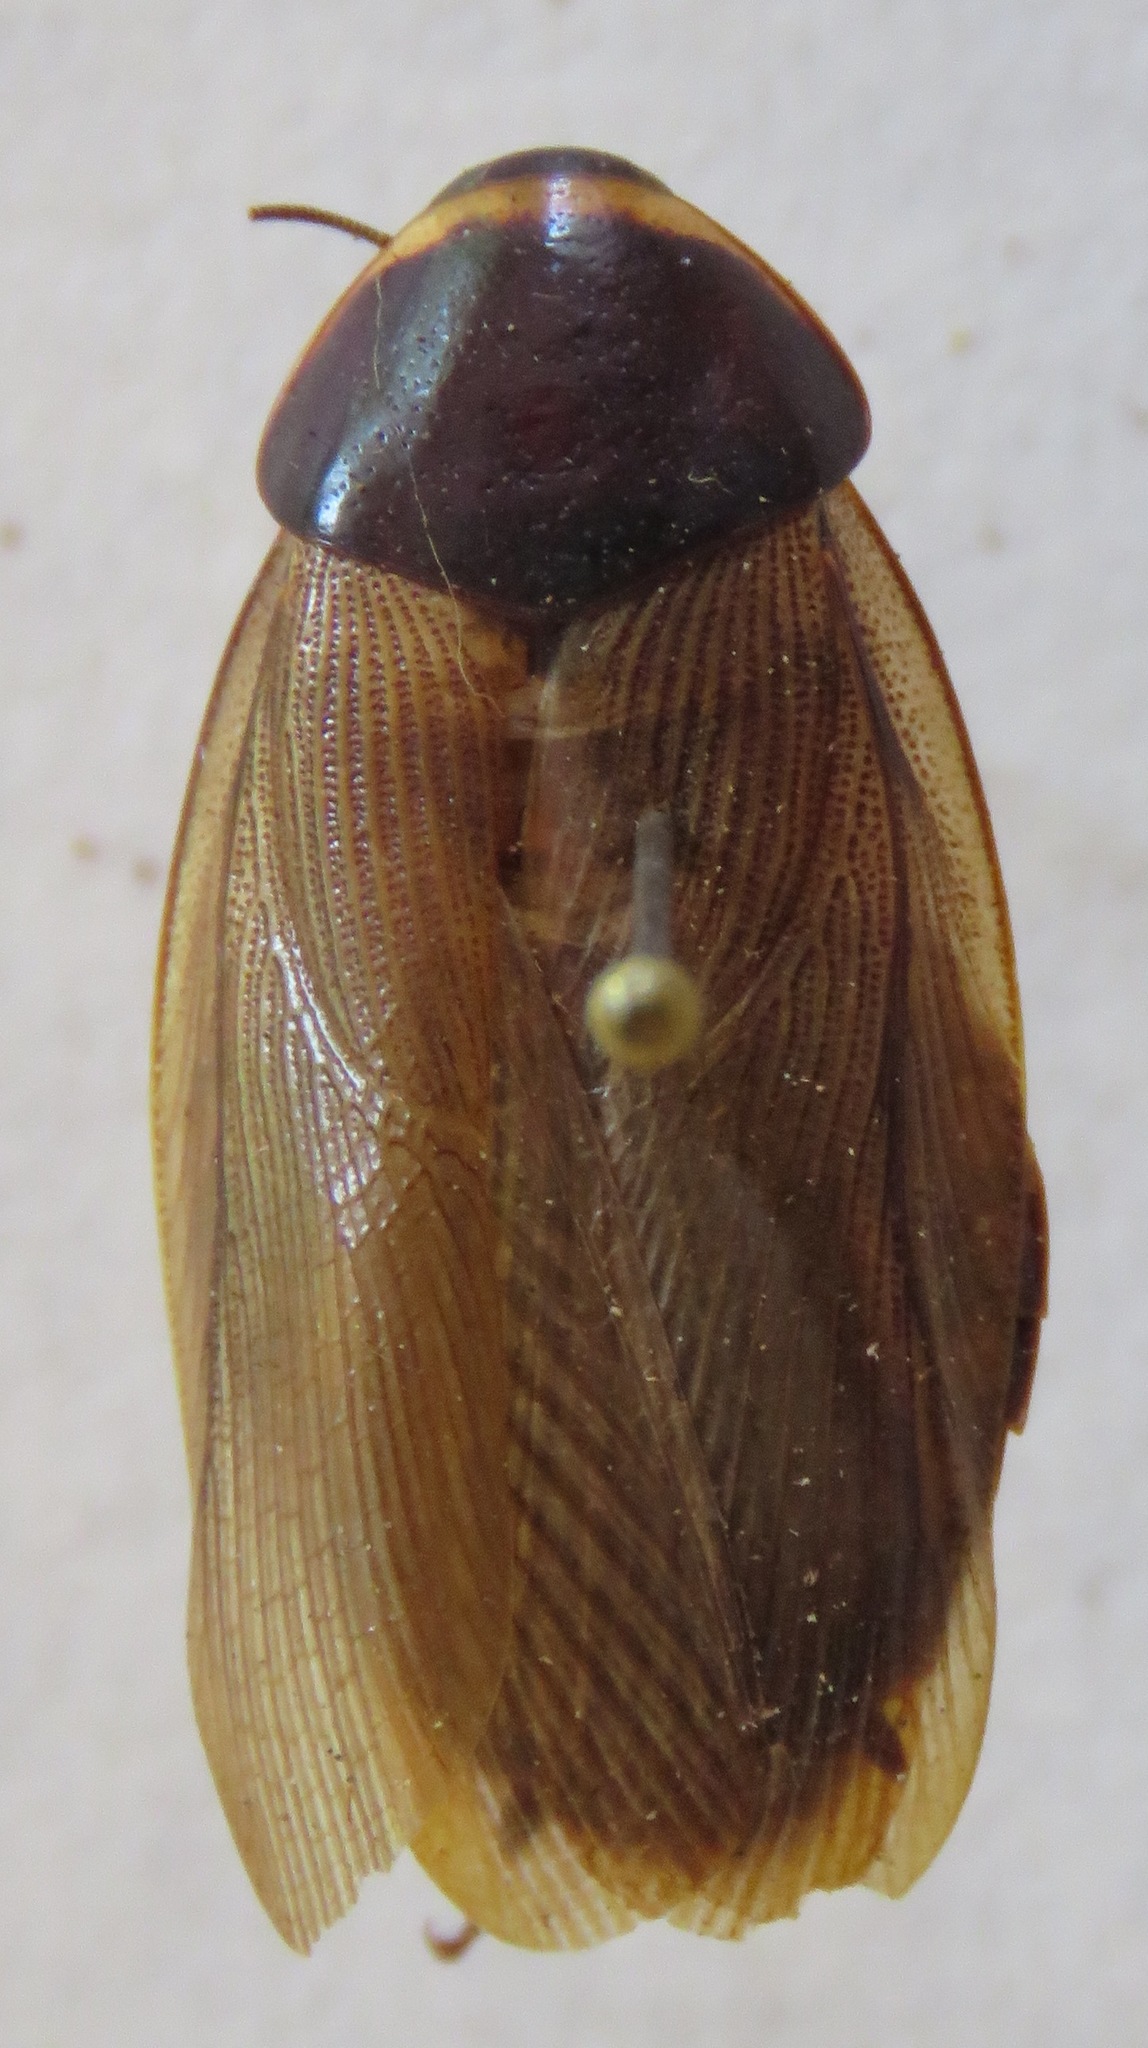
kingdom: Animalia
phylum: Arthropoda
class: Insecta
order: Blattodea
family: Blaberidae
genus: Pycnoscelus
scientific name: Pycnoscelus surinamensis
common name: Surinam cockroach
